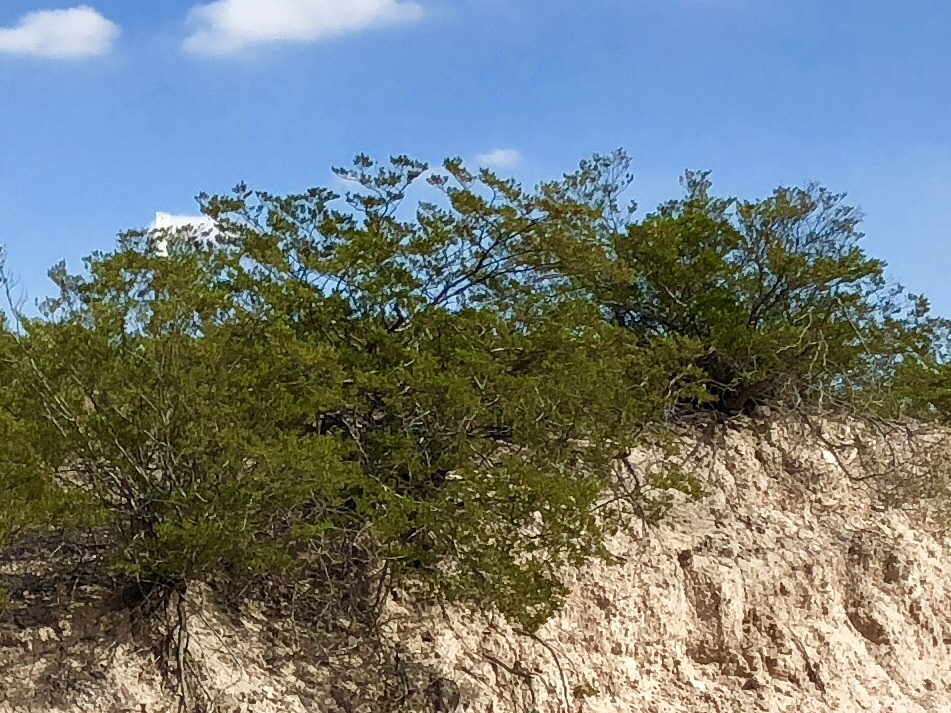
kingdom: Plantae
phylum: Tracheophyta
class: Magnoliopsida
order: Zygophyllales
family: Zygophyllaceae
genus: Larrea
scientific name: Larrea tridentata
